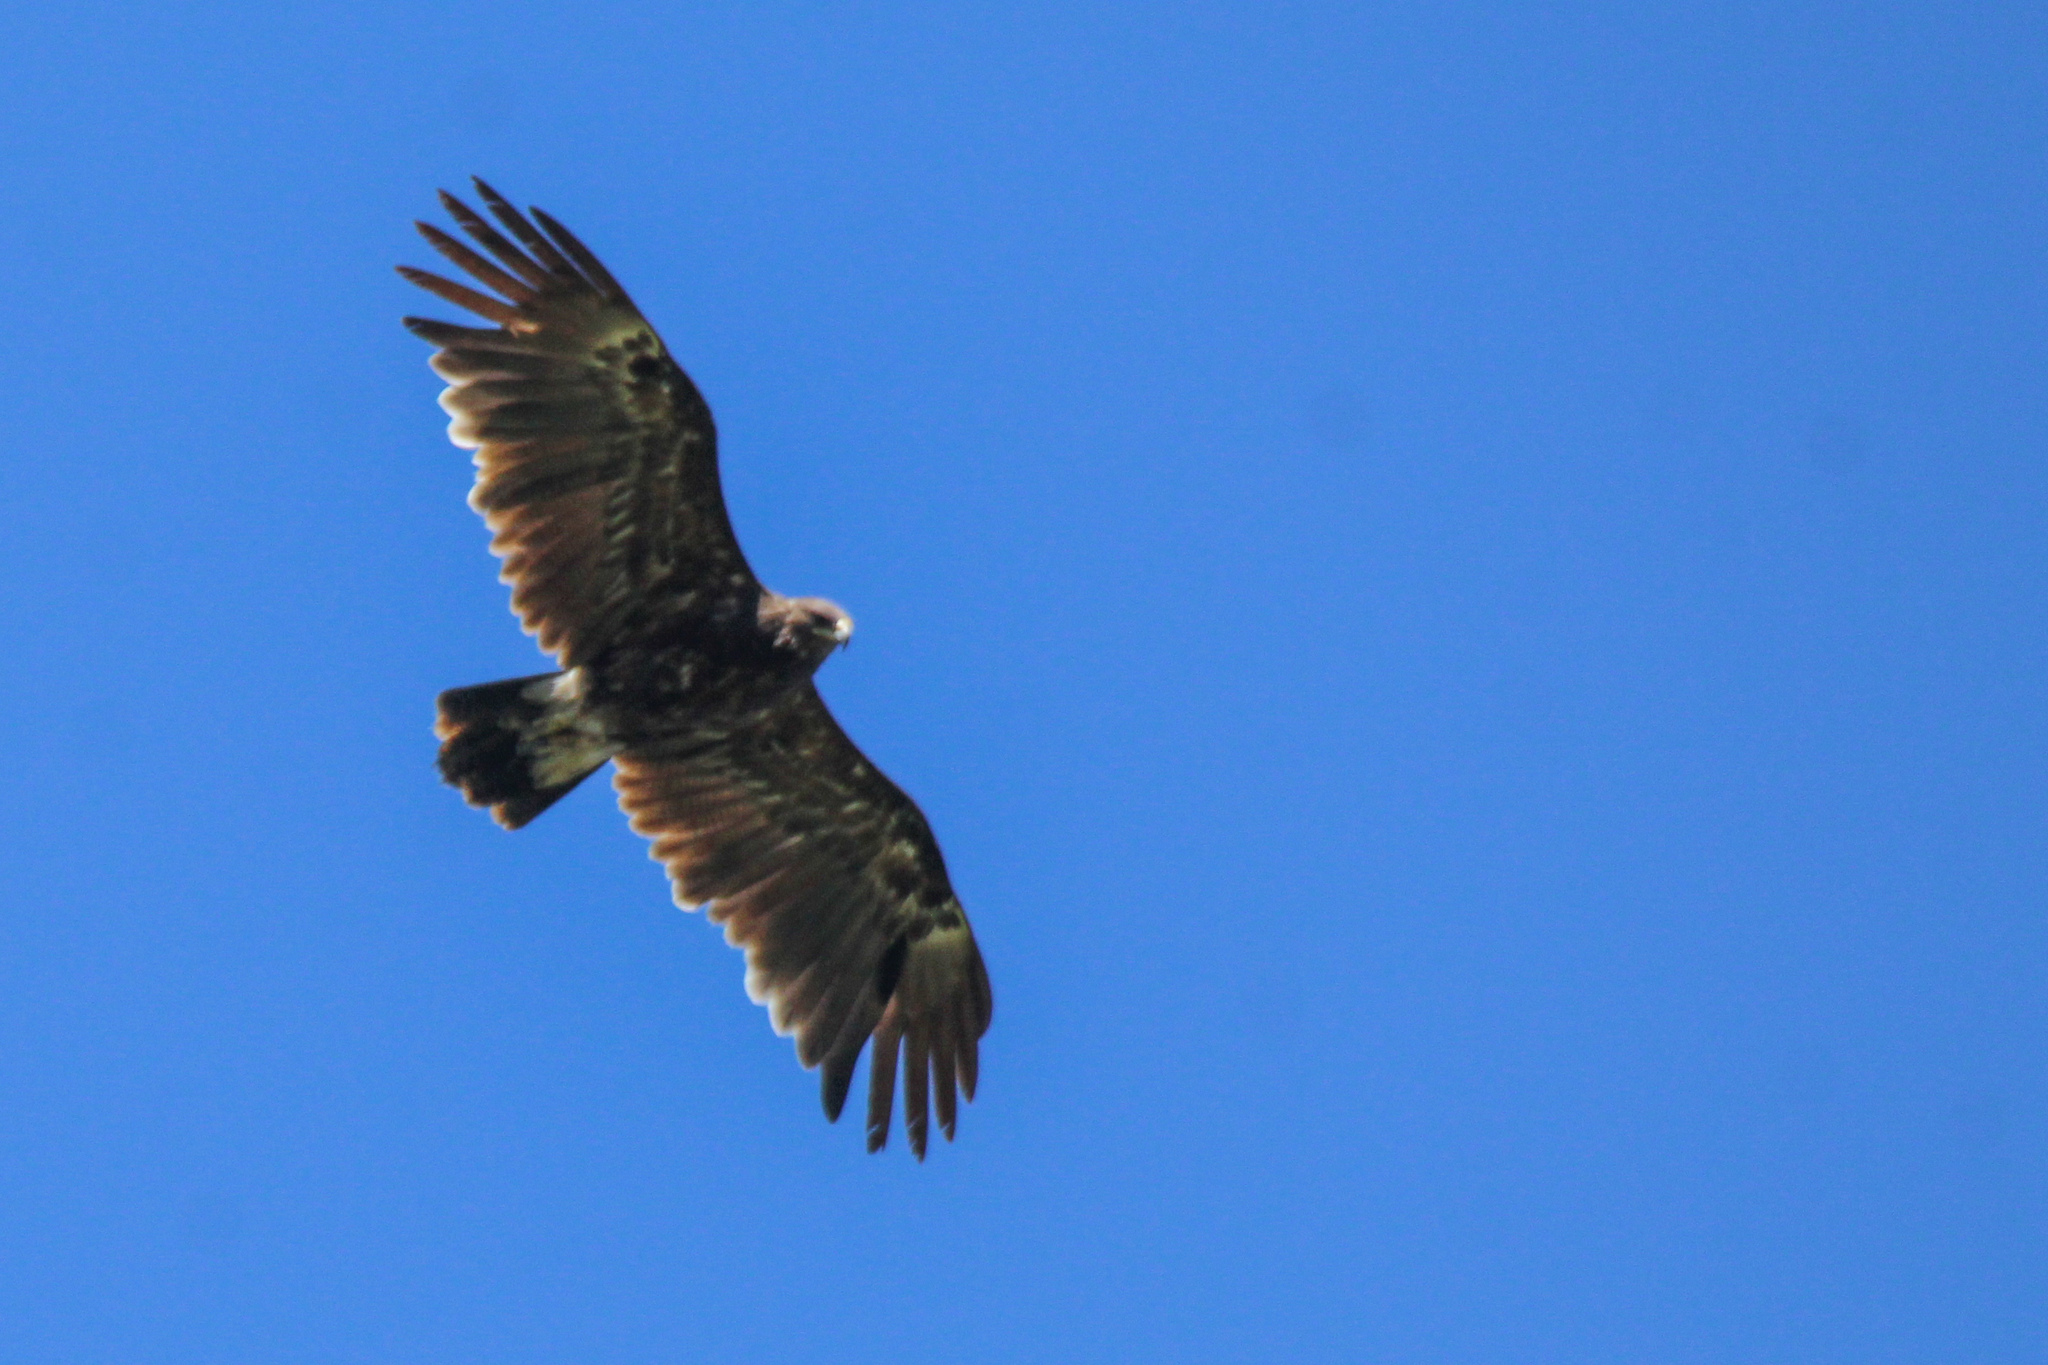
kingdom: Animalia
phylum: Chordata
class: Aves
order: Accipitriformes
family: Accipitridae
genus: Aquila
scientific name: Aquila clanga
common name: Greater spotted eagle
